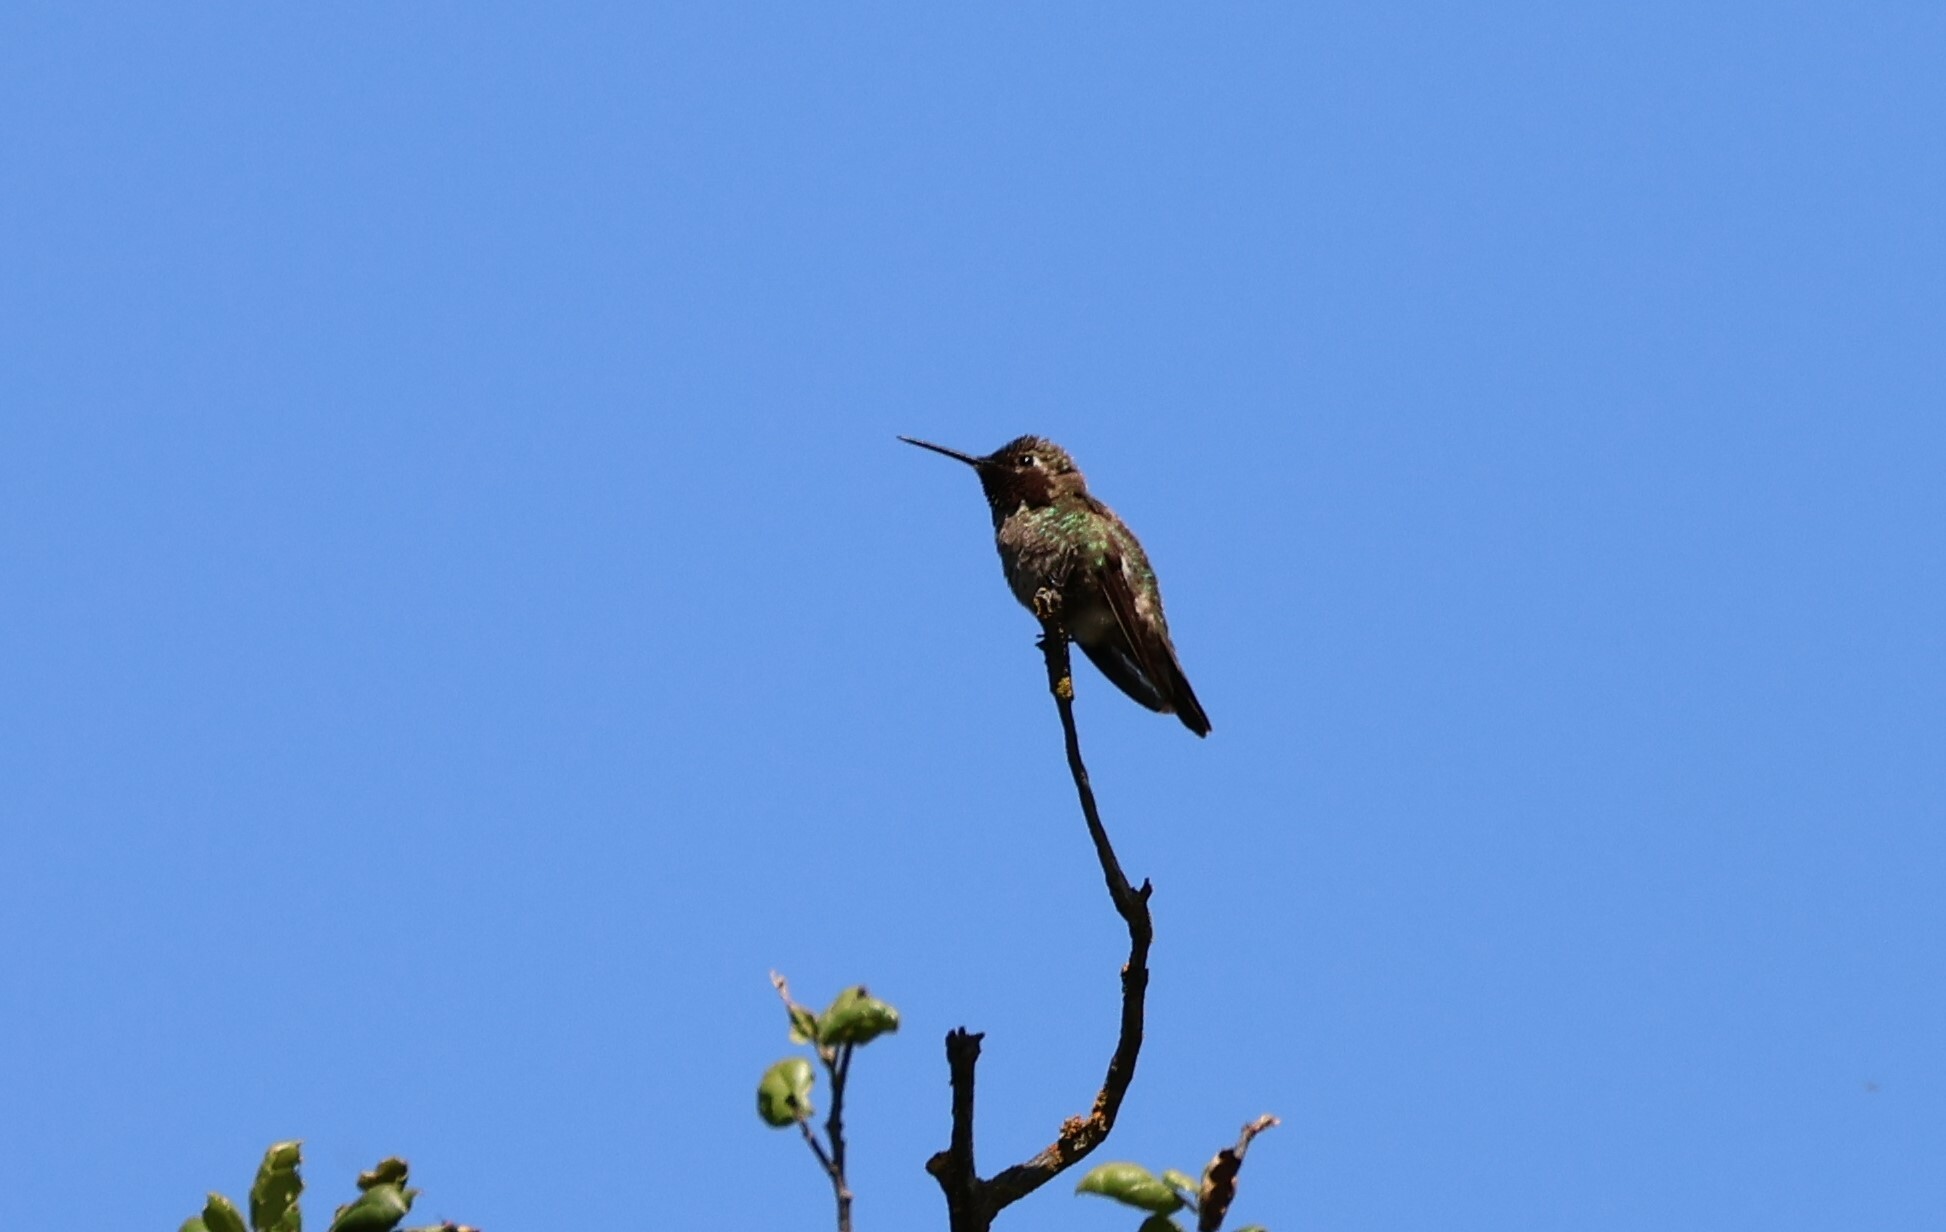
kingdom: Animalia
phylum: Chordata
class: Aves
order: Apodiformes
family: Trochilidae
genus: Calypte
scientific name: Calypte anna
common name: Anna's hummingbird
